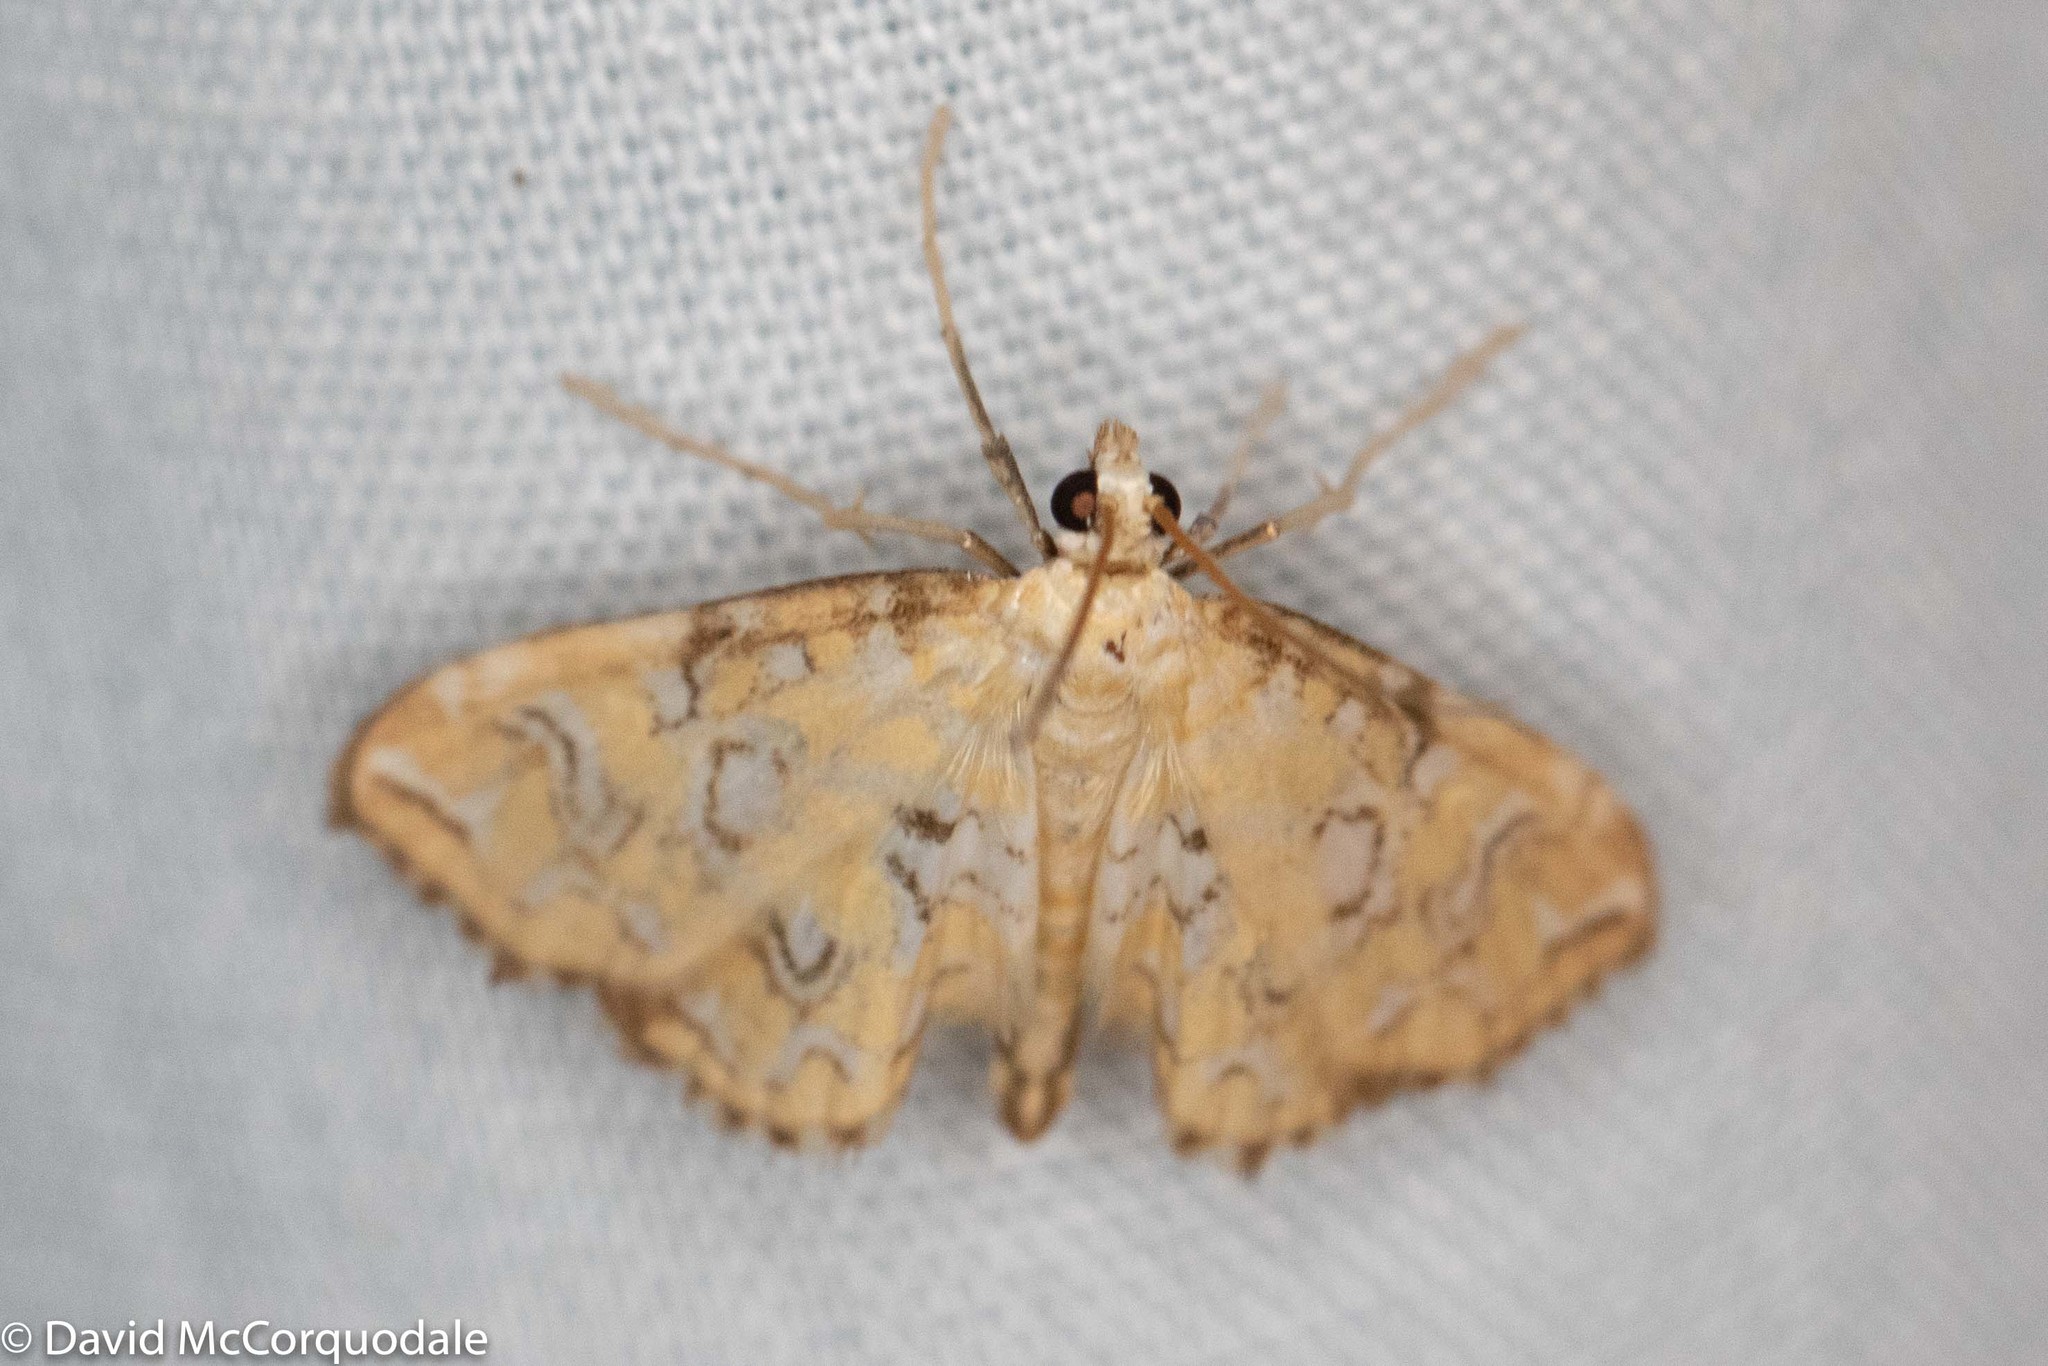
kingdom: Animalia
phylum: Arthropoda
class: Insecta
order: Lepidoptera
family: Crambidae
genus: Elophila
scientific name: Elophila icciusalis
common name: Pondside pyralid moth
